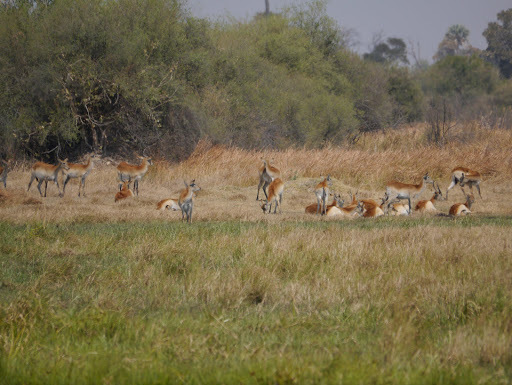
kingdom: Animalia
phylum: Chordata
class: Mammalia
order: Artiodactyla
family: Bovidae
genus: Kobus
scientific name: Kobus leche
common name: Lechwe
